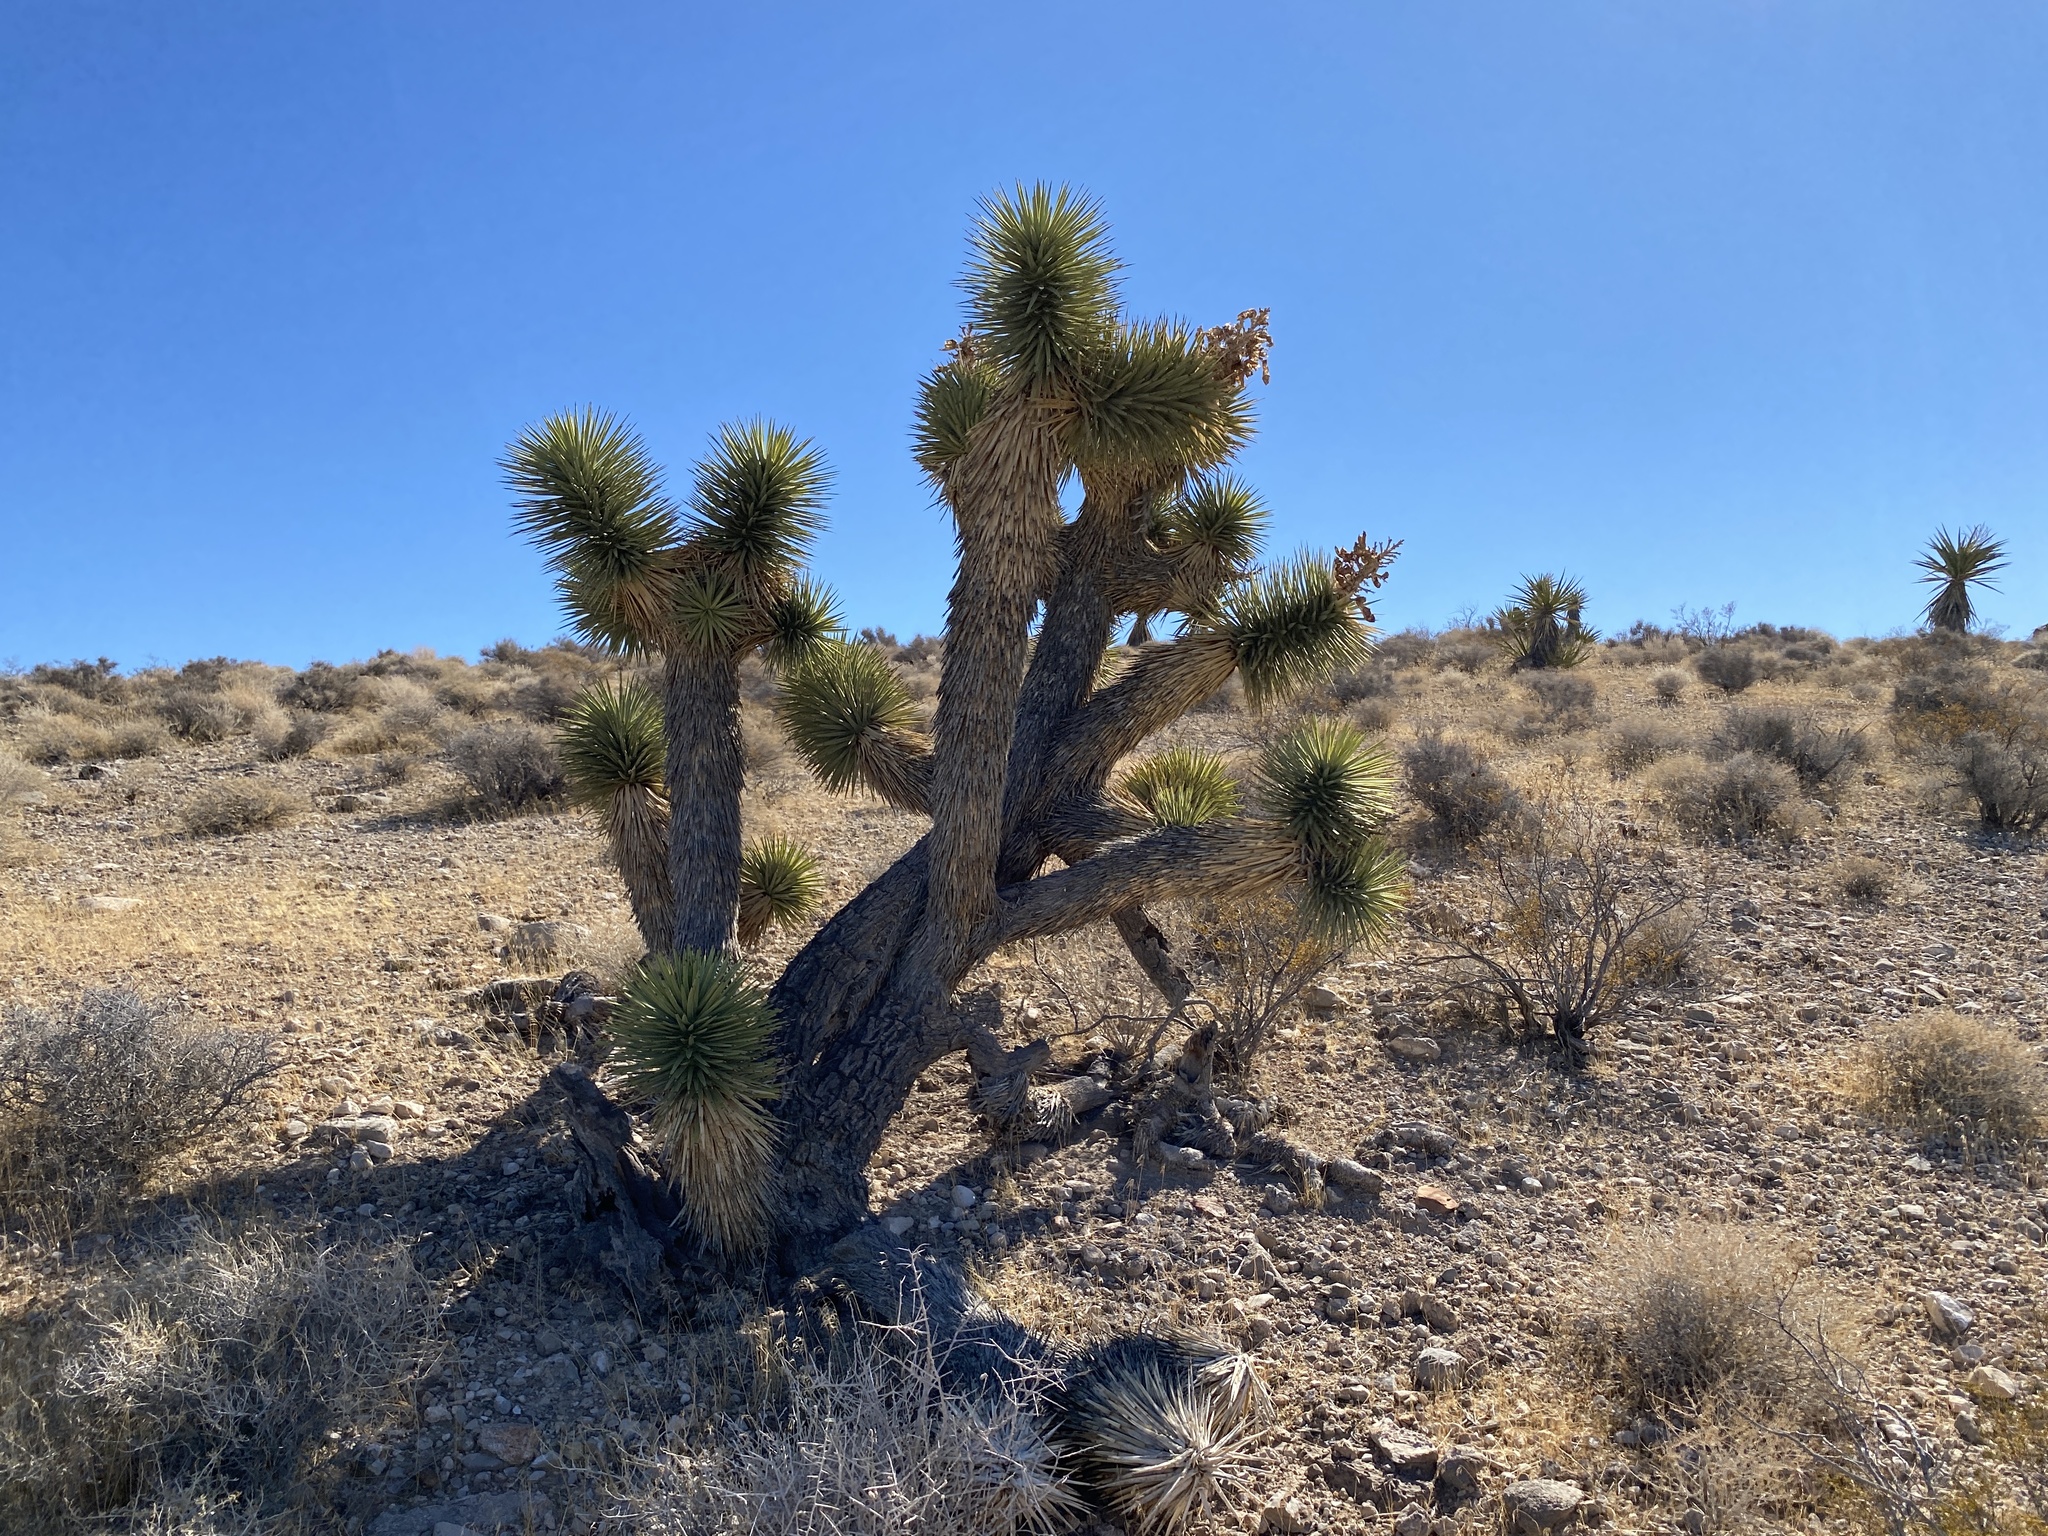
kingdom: Plantae
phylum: Tracheophyta
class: Liliopsida
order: Asparagales
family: Asparagaceae
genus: Yucca
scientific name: Yucca brevifolia
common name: Joshua tree
